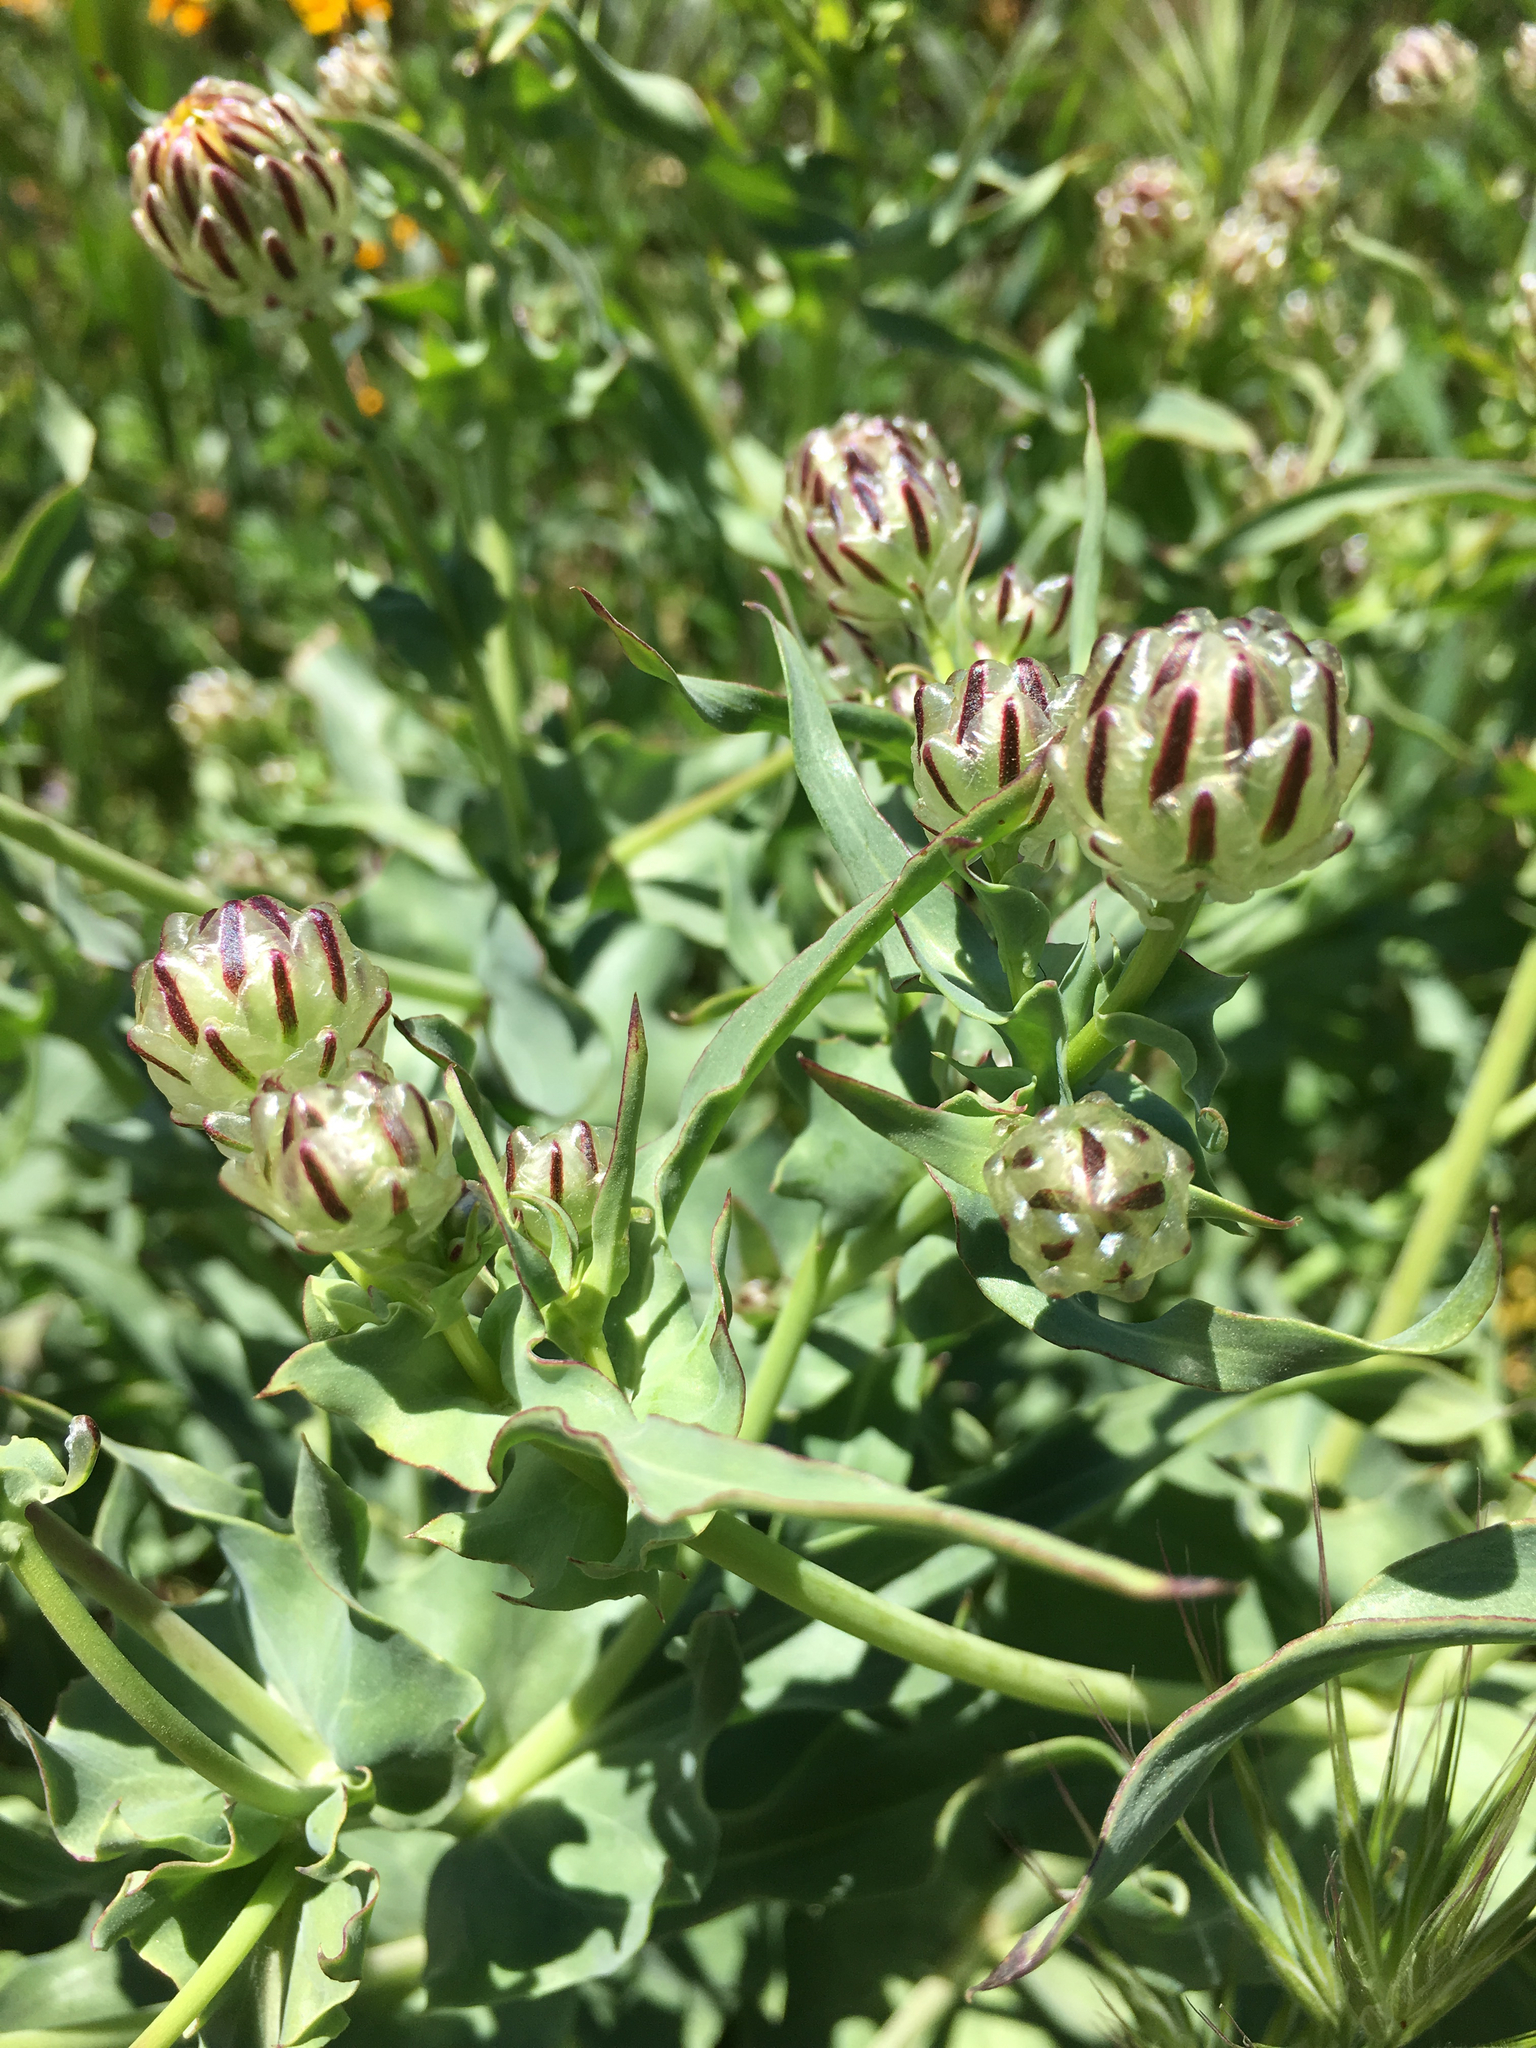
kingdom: Plantae
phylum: Tracheophyta
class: Magnoliopsida
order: Asterales
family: Asteraceae
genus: Malacothrix
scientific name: Malacothrix coulteri
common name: Snake's-head
